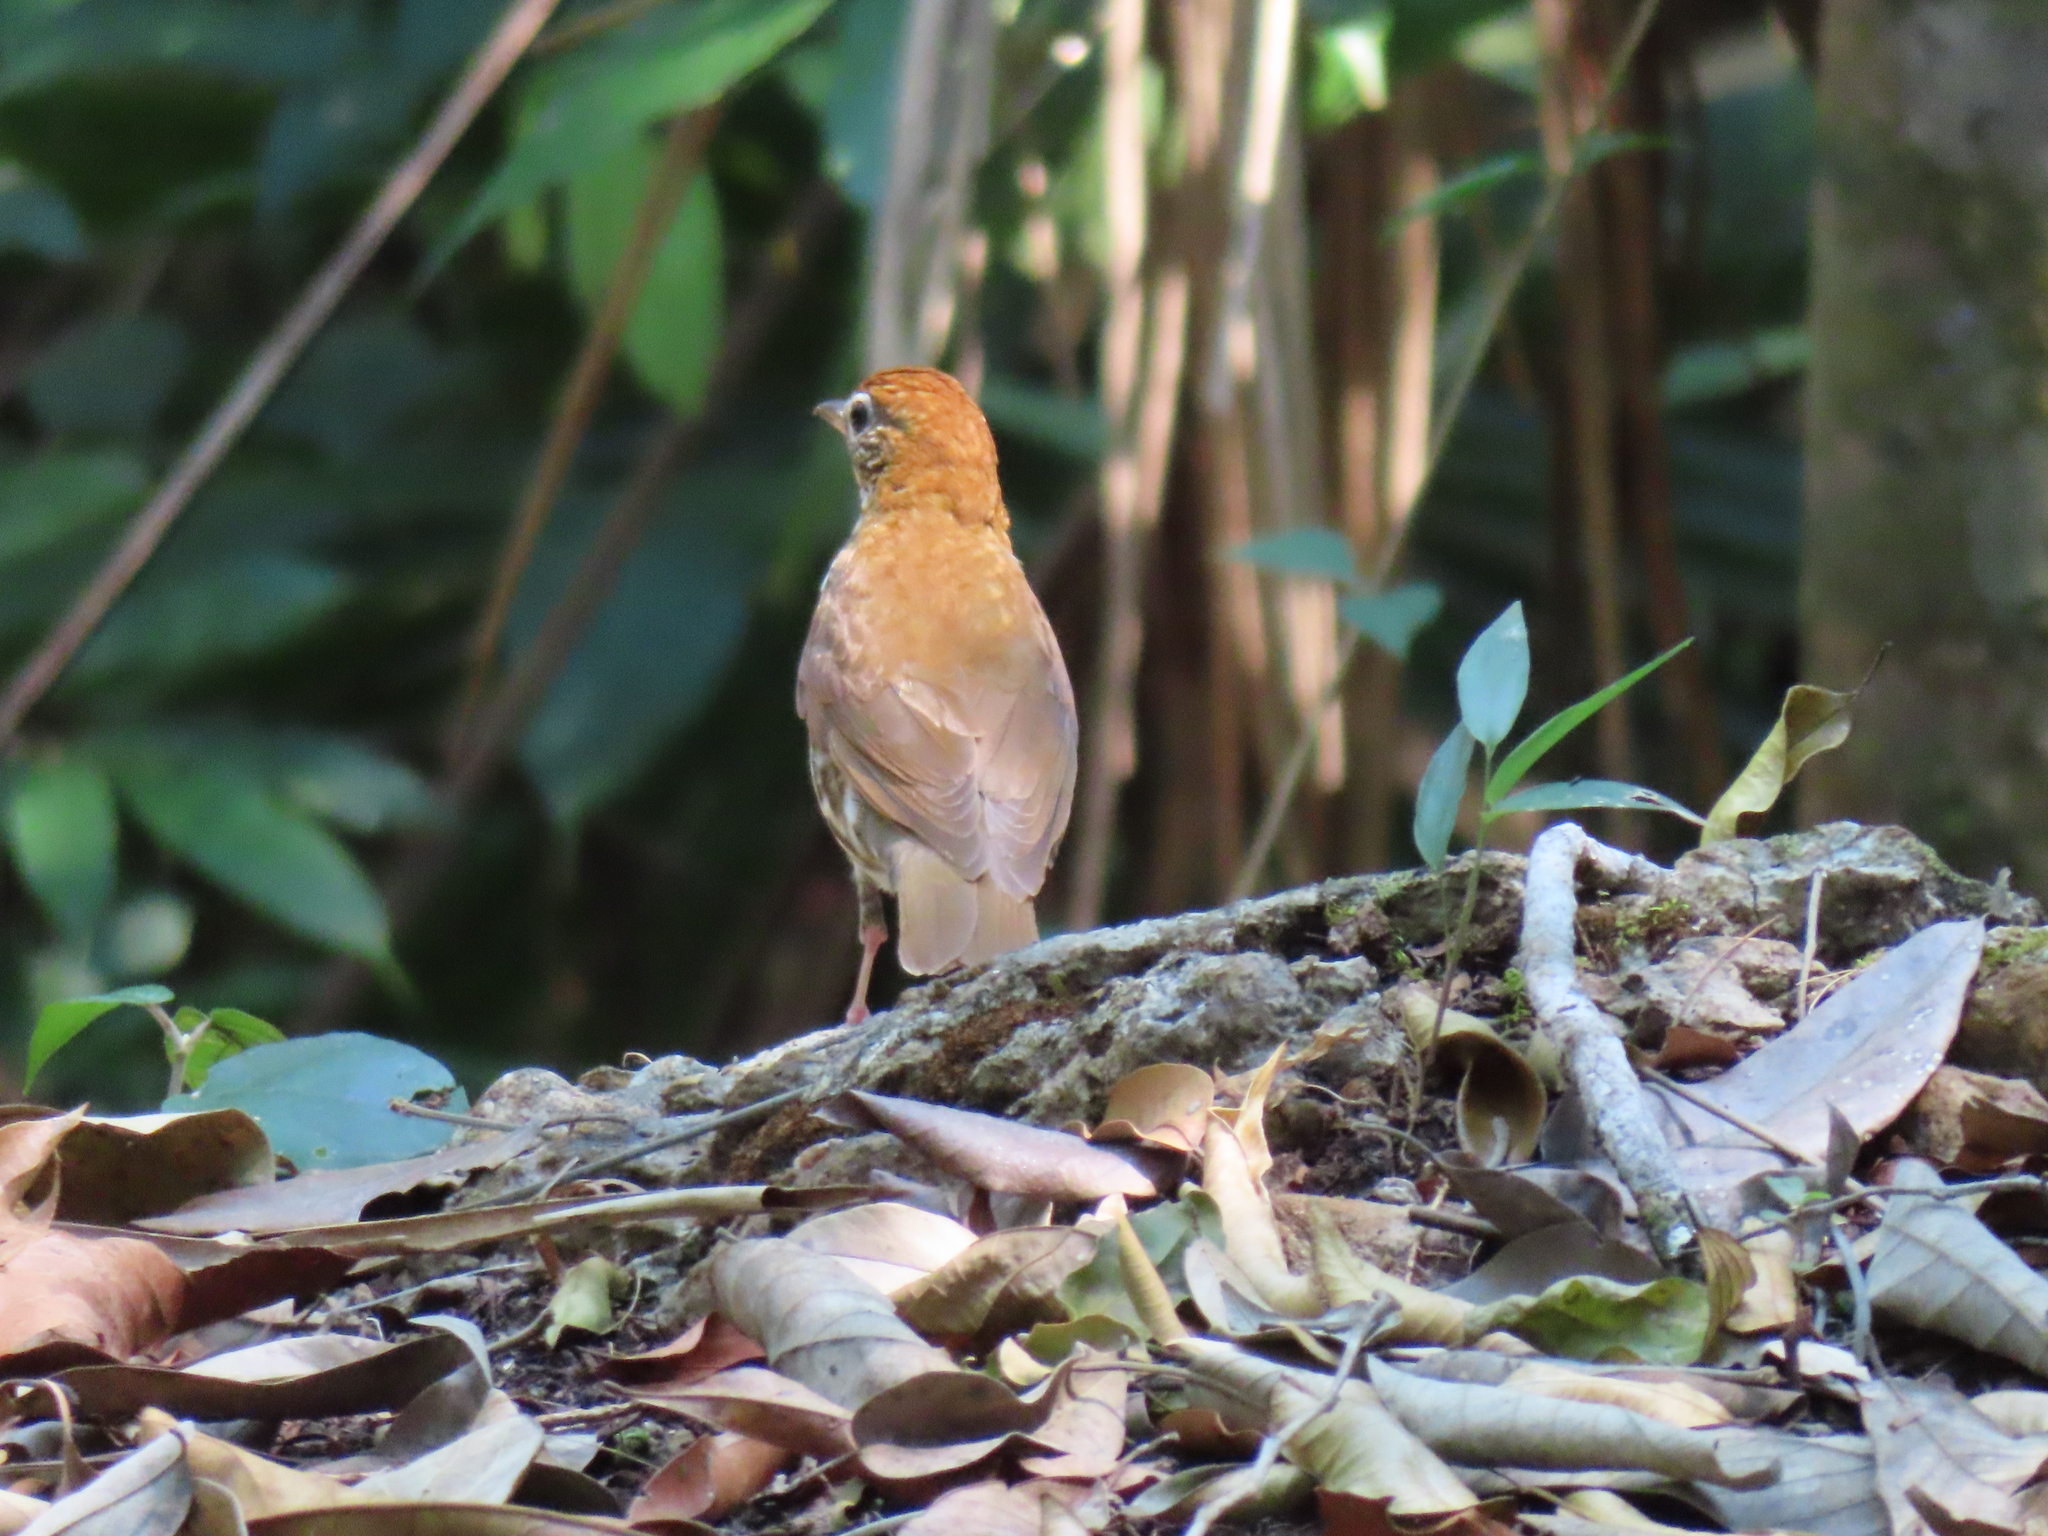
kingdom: Animalia
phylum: Chordata
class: Aves
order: Passeriformes
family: Turdidae
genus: Hylocichla
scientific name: Hylocichla mustelina
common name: Wood thrush
